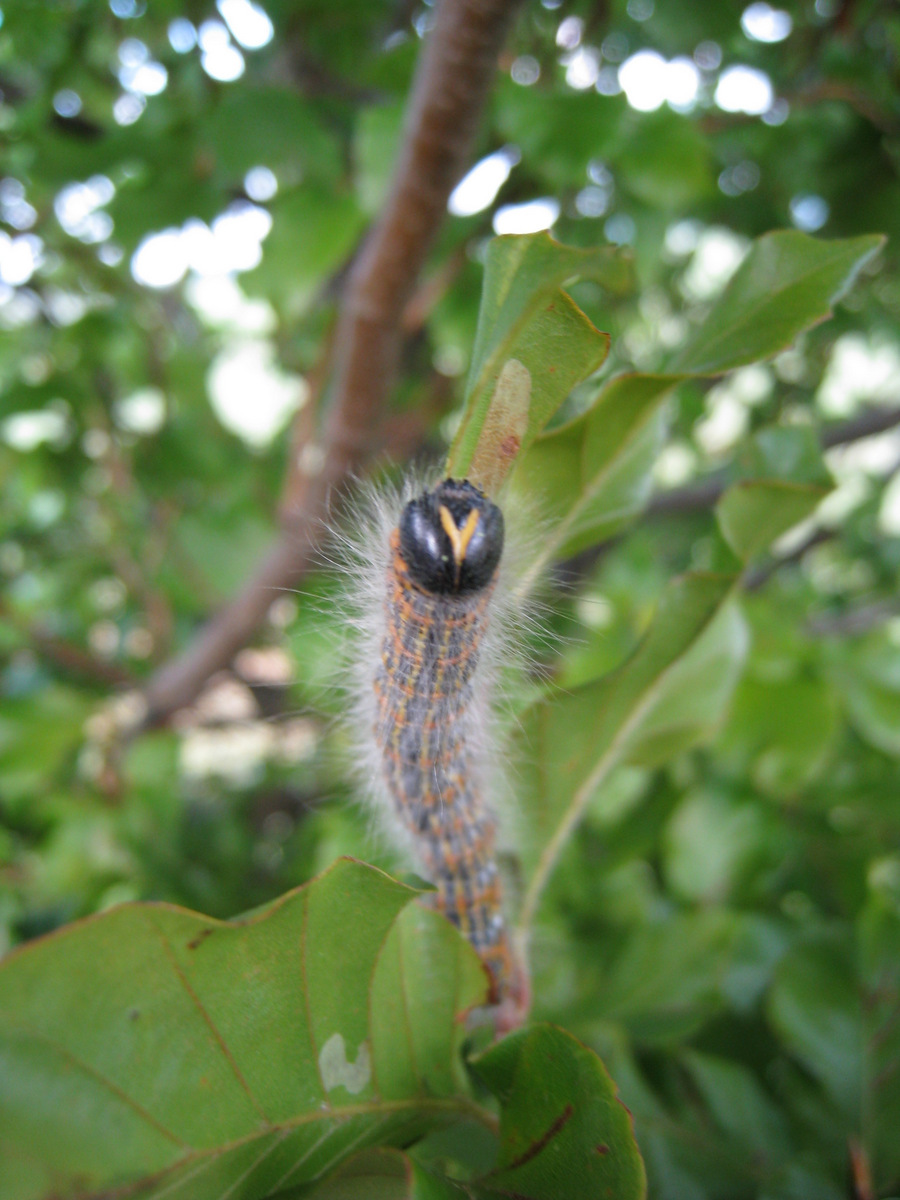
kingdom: Animalia
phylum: Arthropoda
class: Insecta
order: Lepidoptera
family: Notodontidae
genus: Phalera
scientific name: Phalera bucephala
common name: Buff-tip
